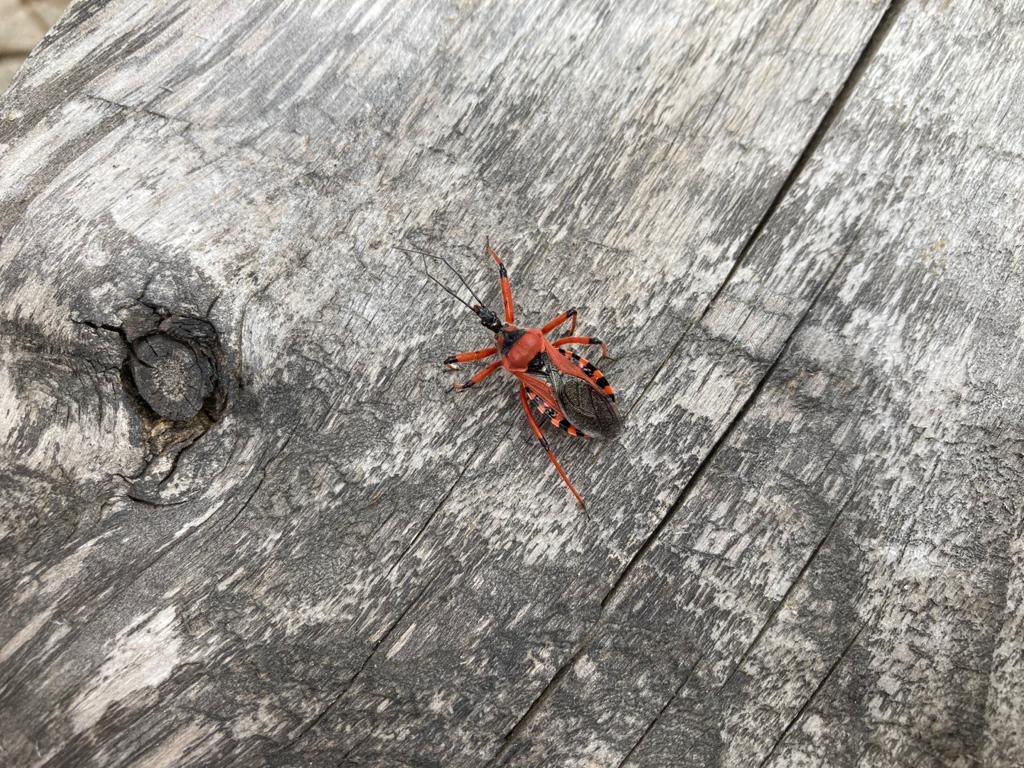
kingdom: Animalia
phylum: Arthropoda
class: Insecta
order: Hemiptera
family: Reduviidae
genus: Rhynocoris
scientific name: Rhynocoris iracundus
